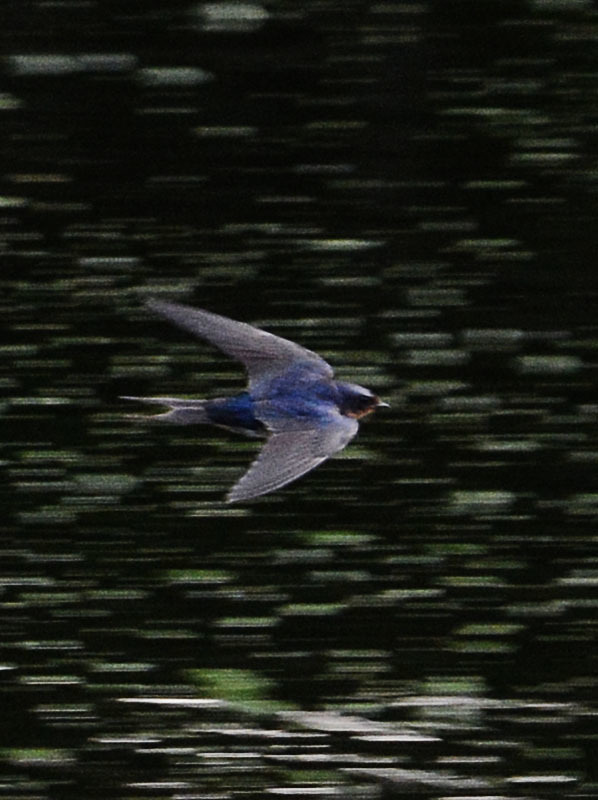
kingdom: Animalia
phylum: Chordata
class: Aves
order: Passeriformes
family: Hirundinidae
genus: Hirundo
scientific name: Hirundo rustica
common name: Barn swallow
